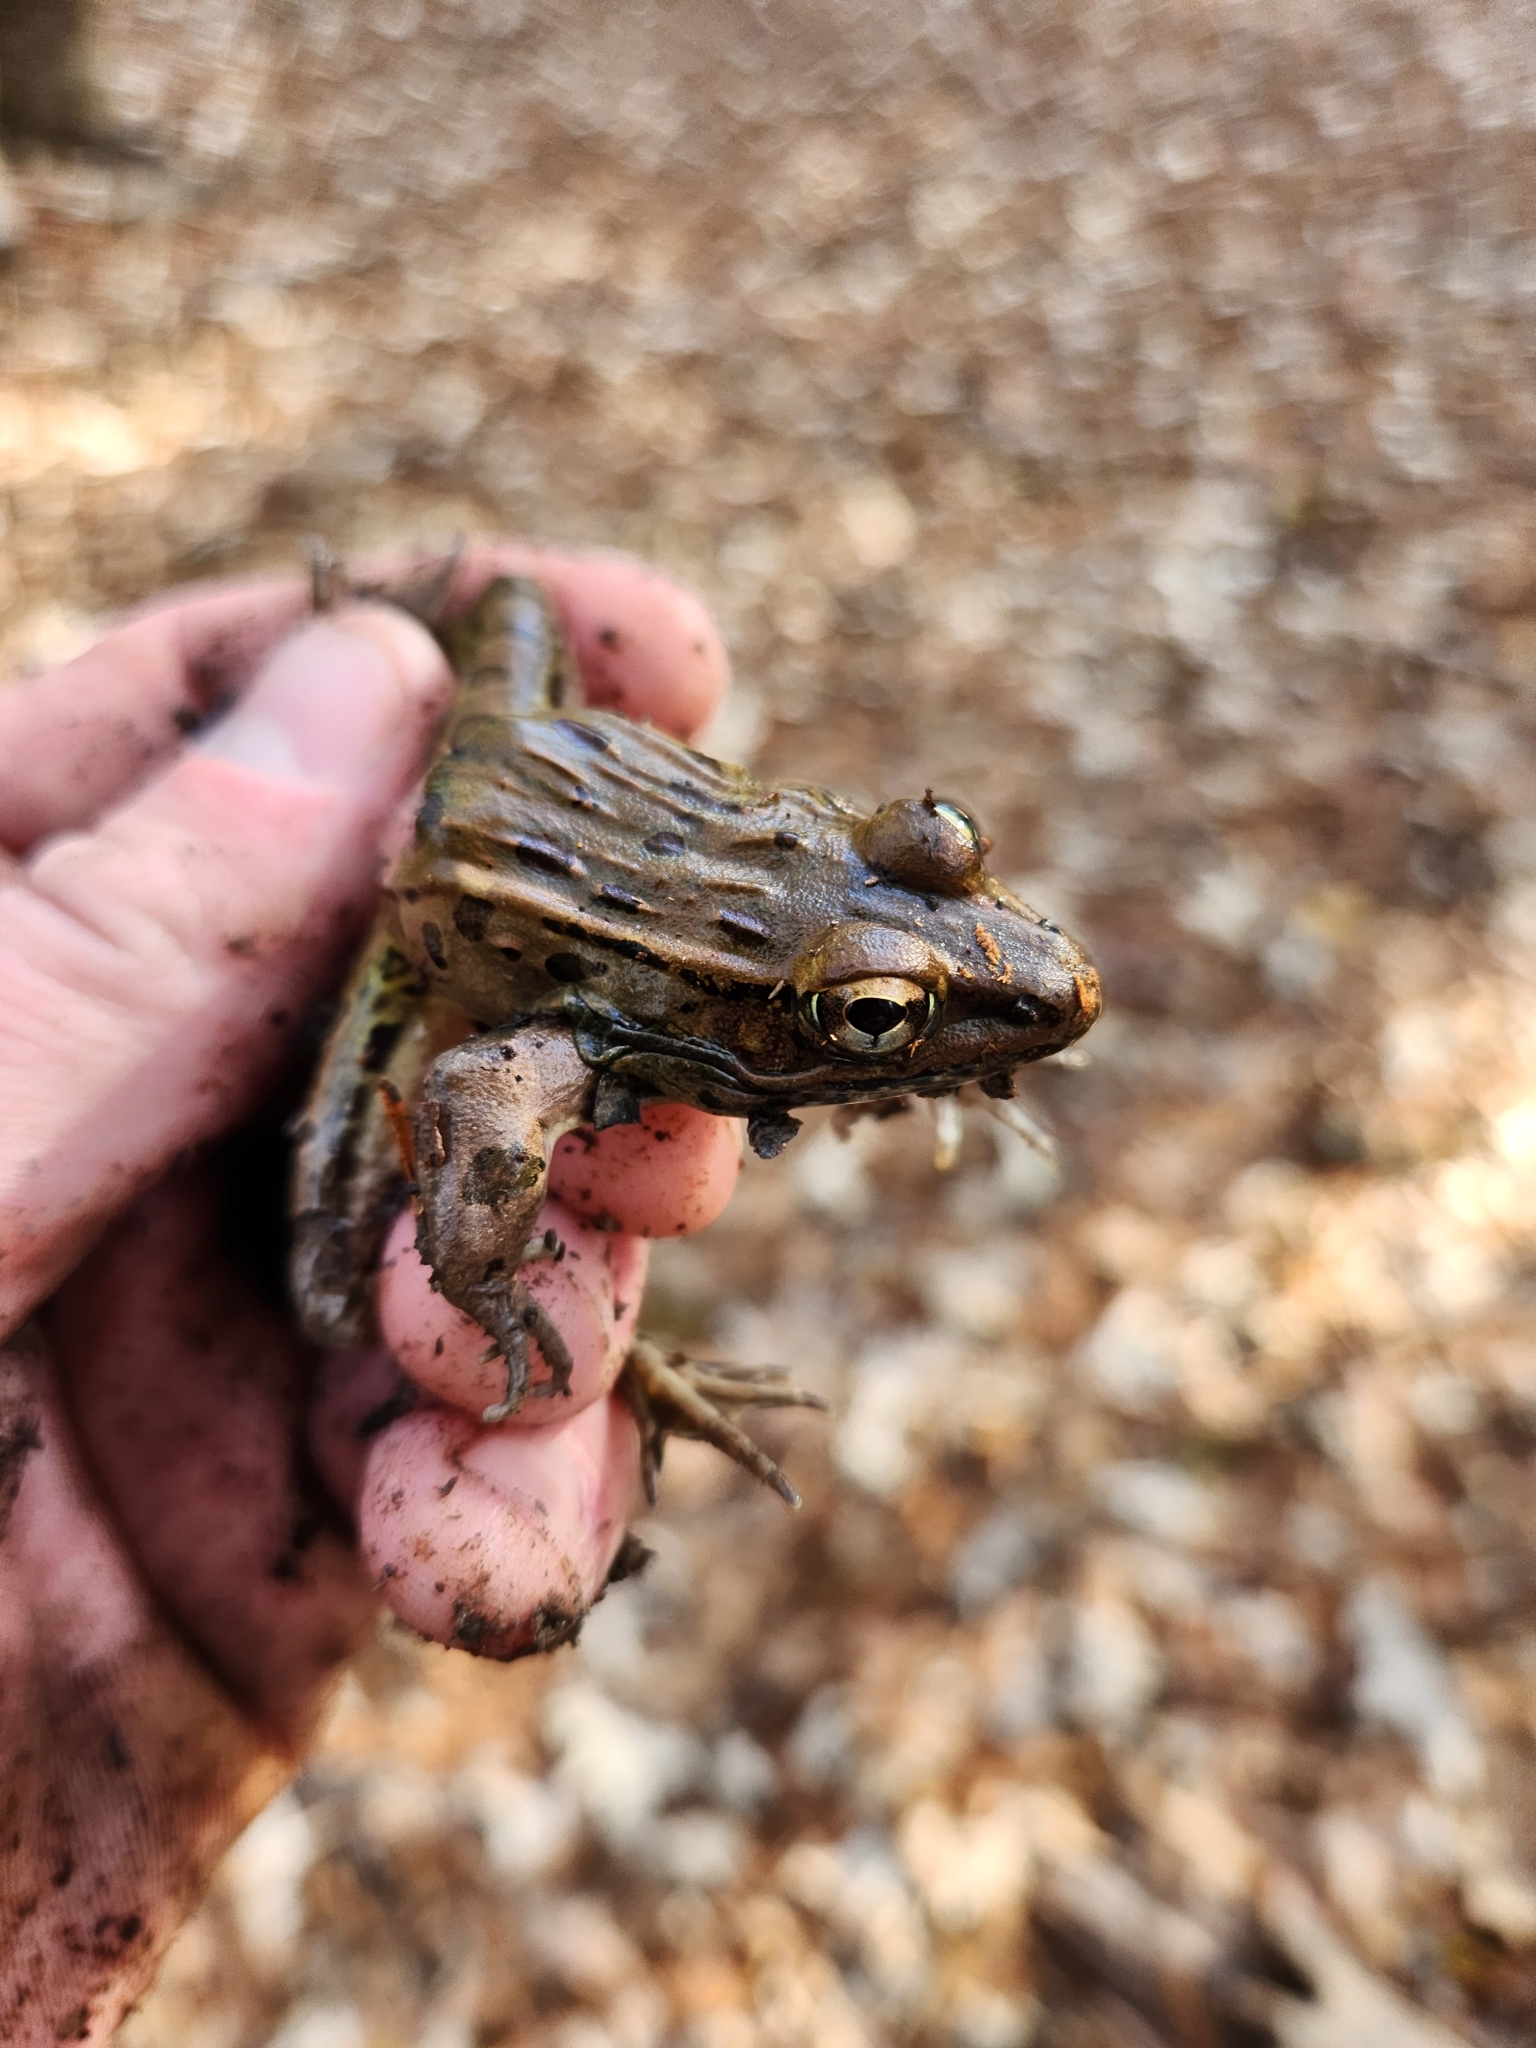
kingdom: Animalia
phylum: Chordata
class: Amphibia
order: Anura
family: Ranidae
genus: Lithobates
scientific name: Lithobates sphenocephalus
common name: Southern leopard frog
